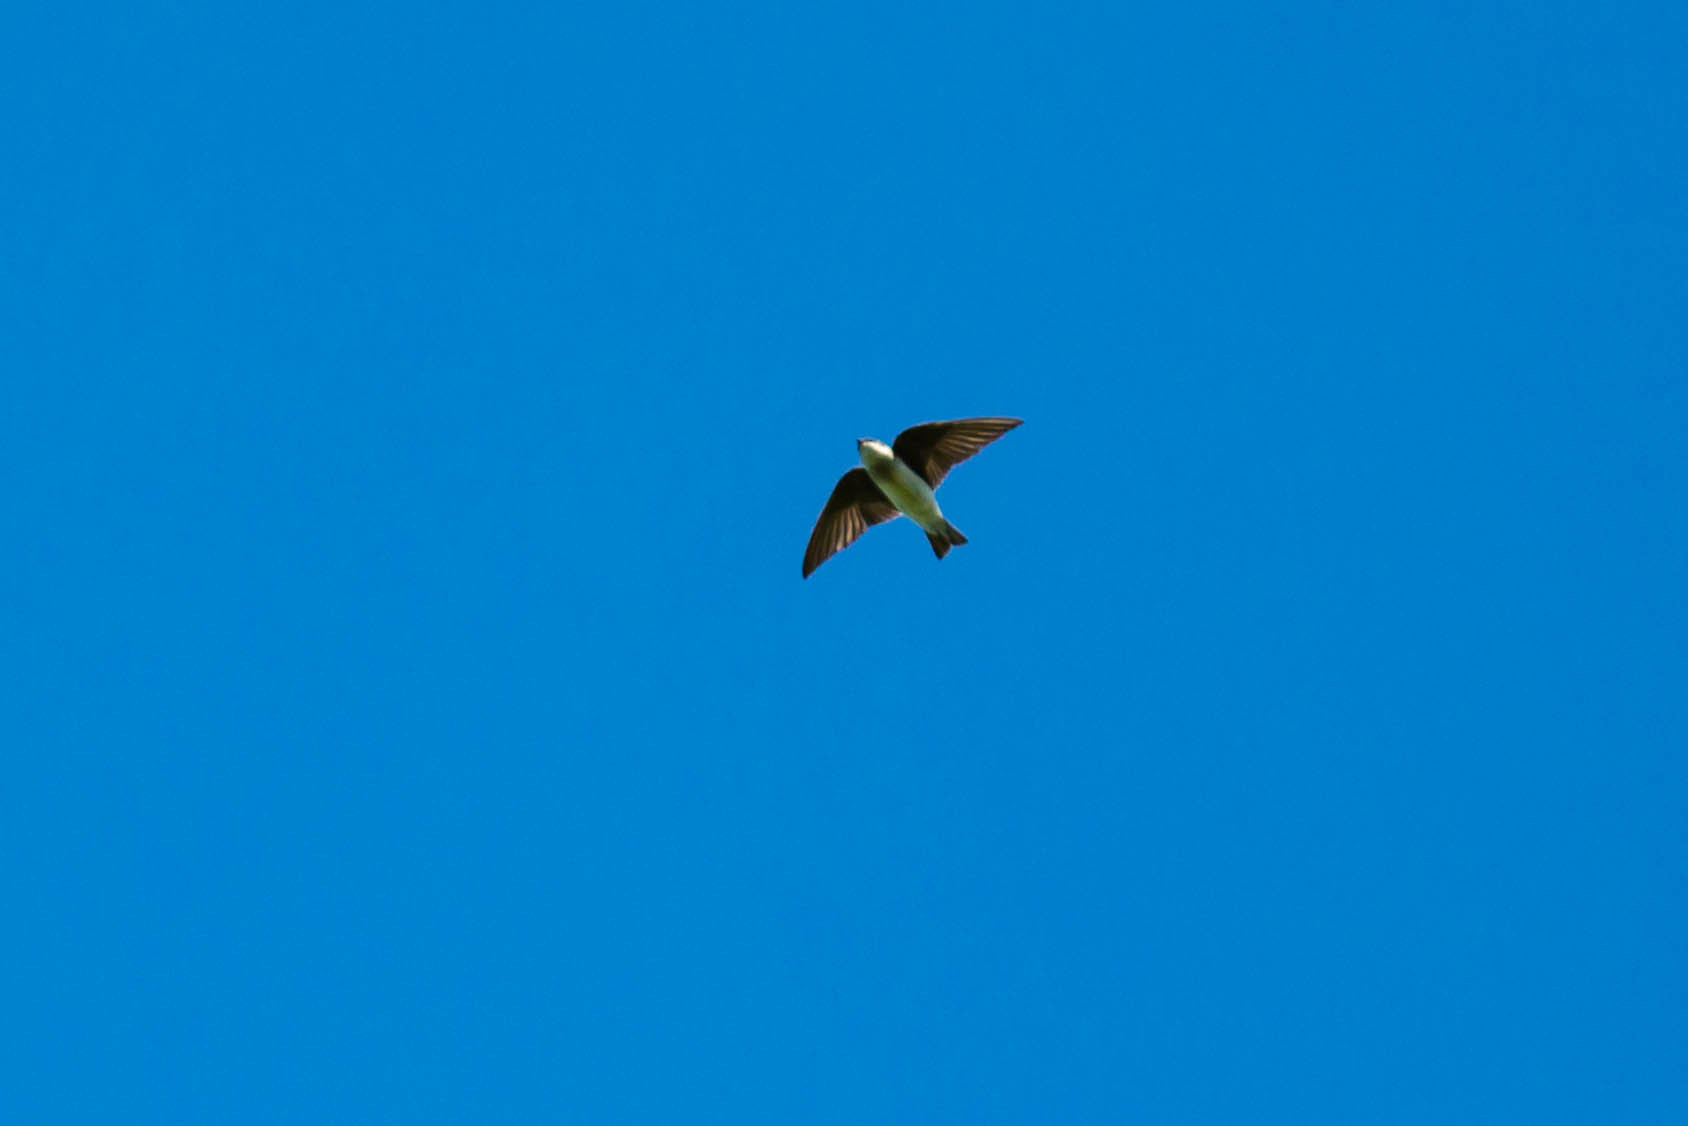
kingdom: Animalia
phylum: Chordata
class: Aves
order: Passeriformes
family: Hirundinidae
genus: Tachycineta
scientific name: Tachycineta bicolor
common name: Tree swallow
